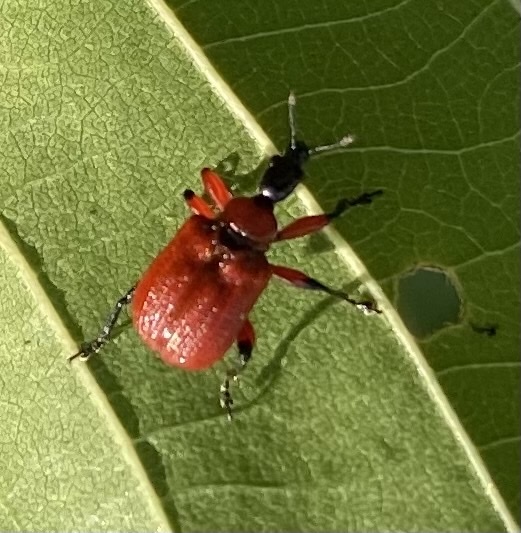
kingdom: Animalia
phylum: Arthropoda
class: Insecta
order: Coleoptera
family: Attelabidae
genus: Apoderus
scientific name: Apoderus coryli
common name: Hazel leaf roller
